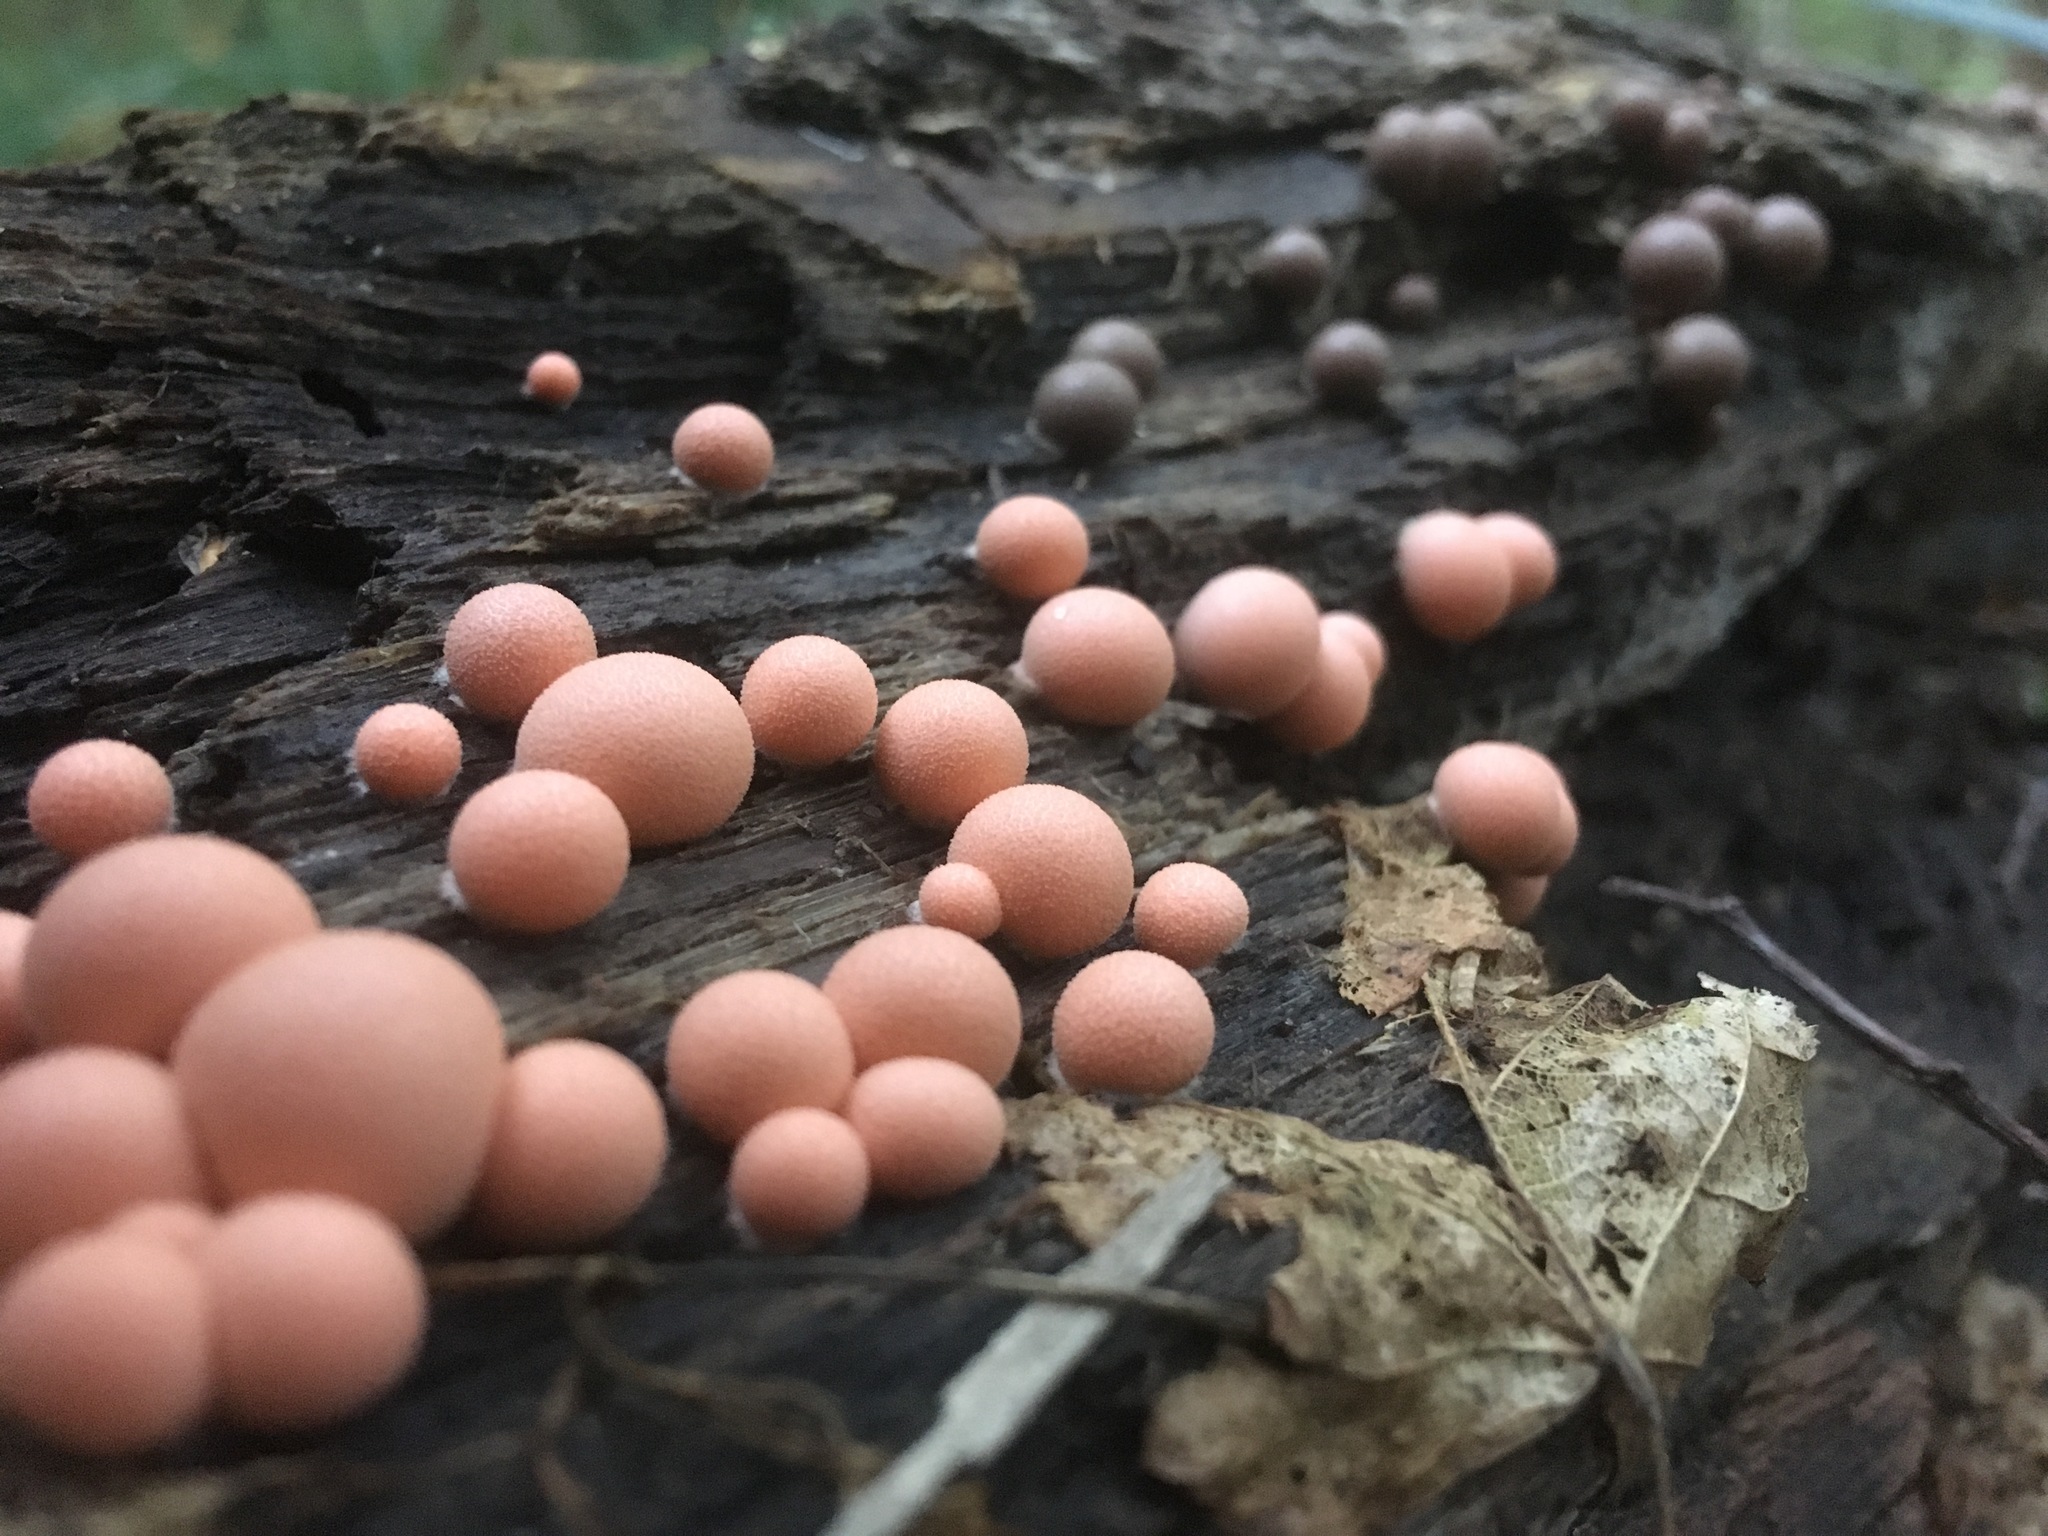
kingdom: Protozoa
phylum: Mycetozoa
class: Myxomycetes
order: Cribrariales
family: Tubiferaceae
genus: Lycogala
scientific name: Lycogala epidendrum
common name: Wolf's milk
